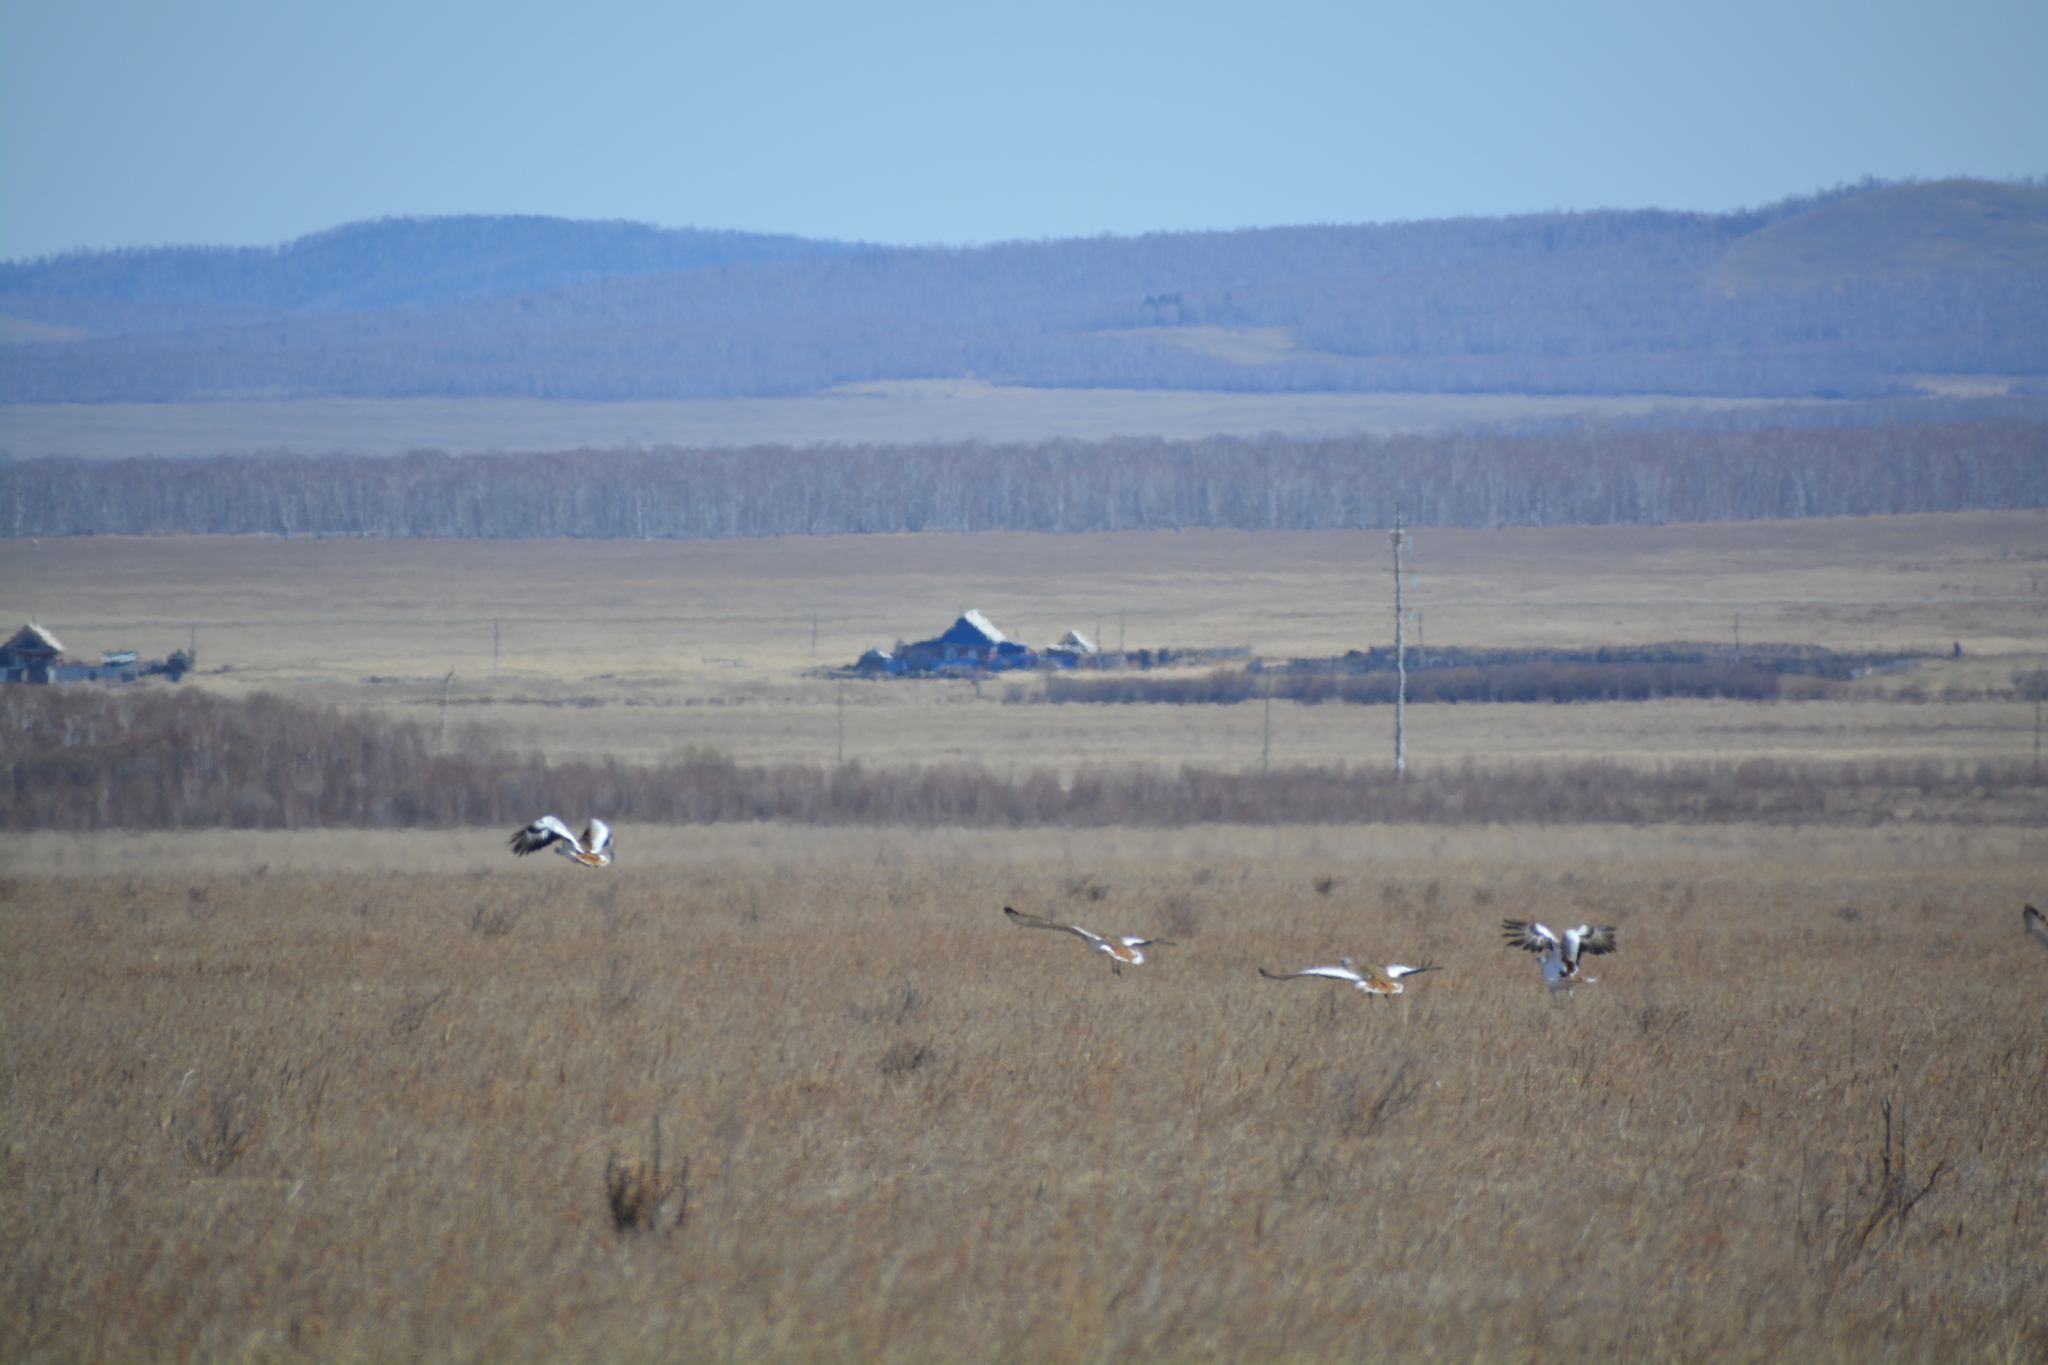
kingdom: Animalia
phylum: Chordata
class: Aves
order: Otidiformes
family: Otididae
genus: Otis
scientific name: Otis tarda
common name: Great bustard
